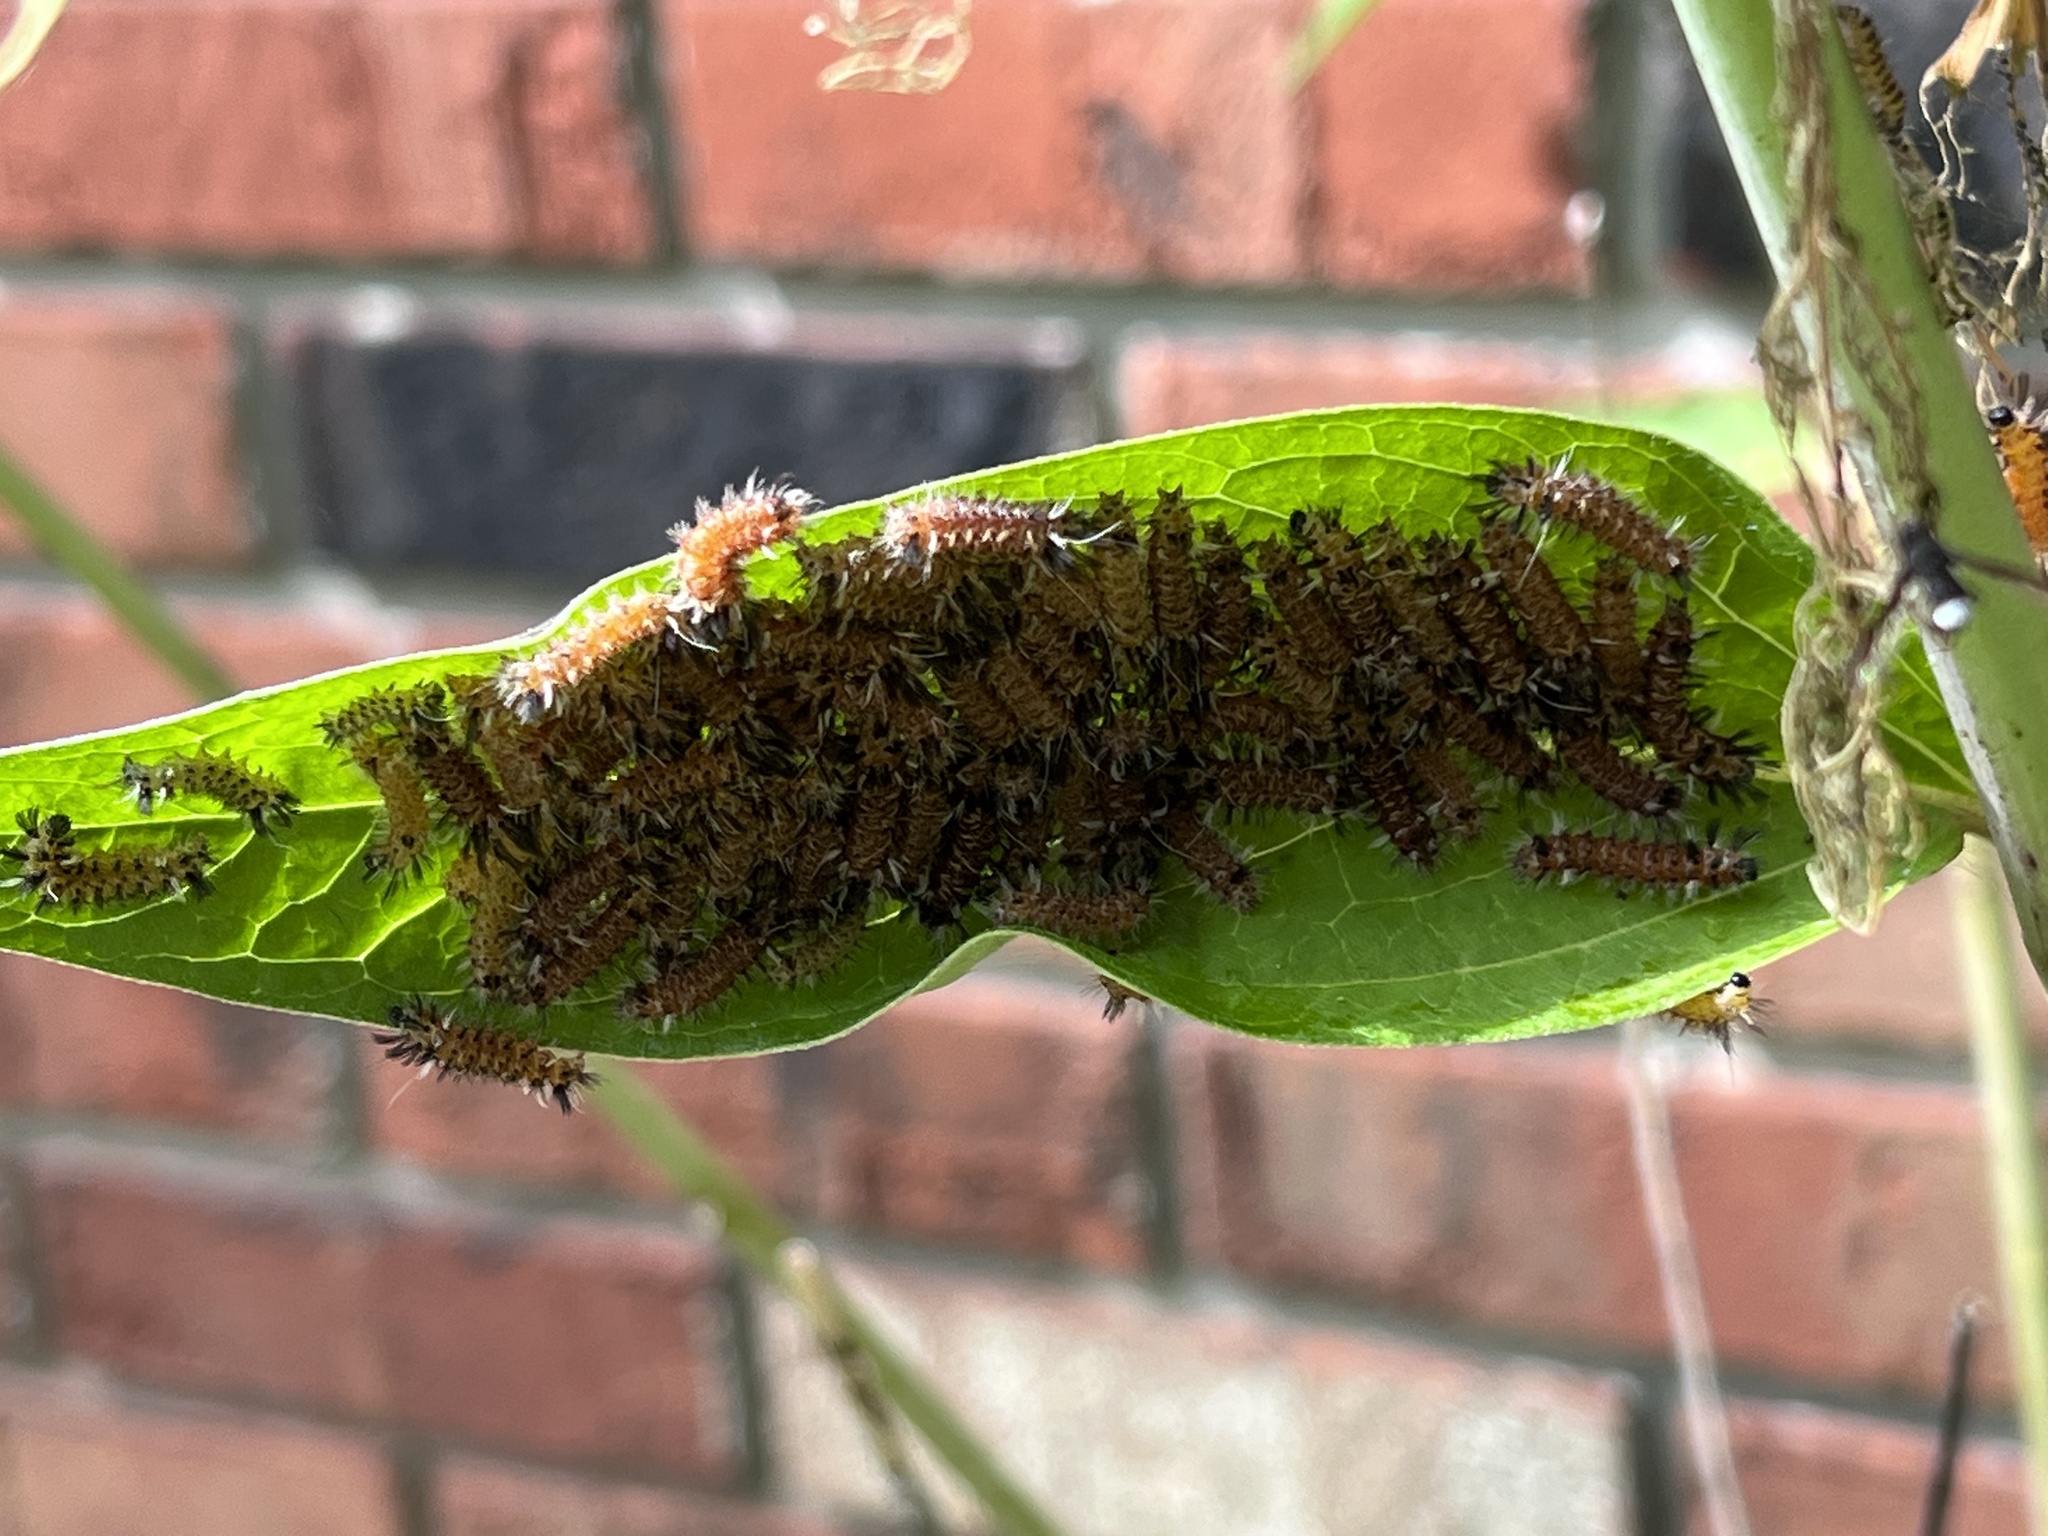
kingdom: Animalia
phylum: Arthropoda
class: Insecta
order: Lepidoptera
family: Erebidae
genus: Euchaetes
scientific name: Euchaetes egle
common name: Milkweed tussock moth
